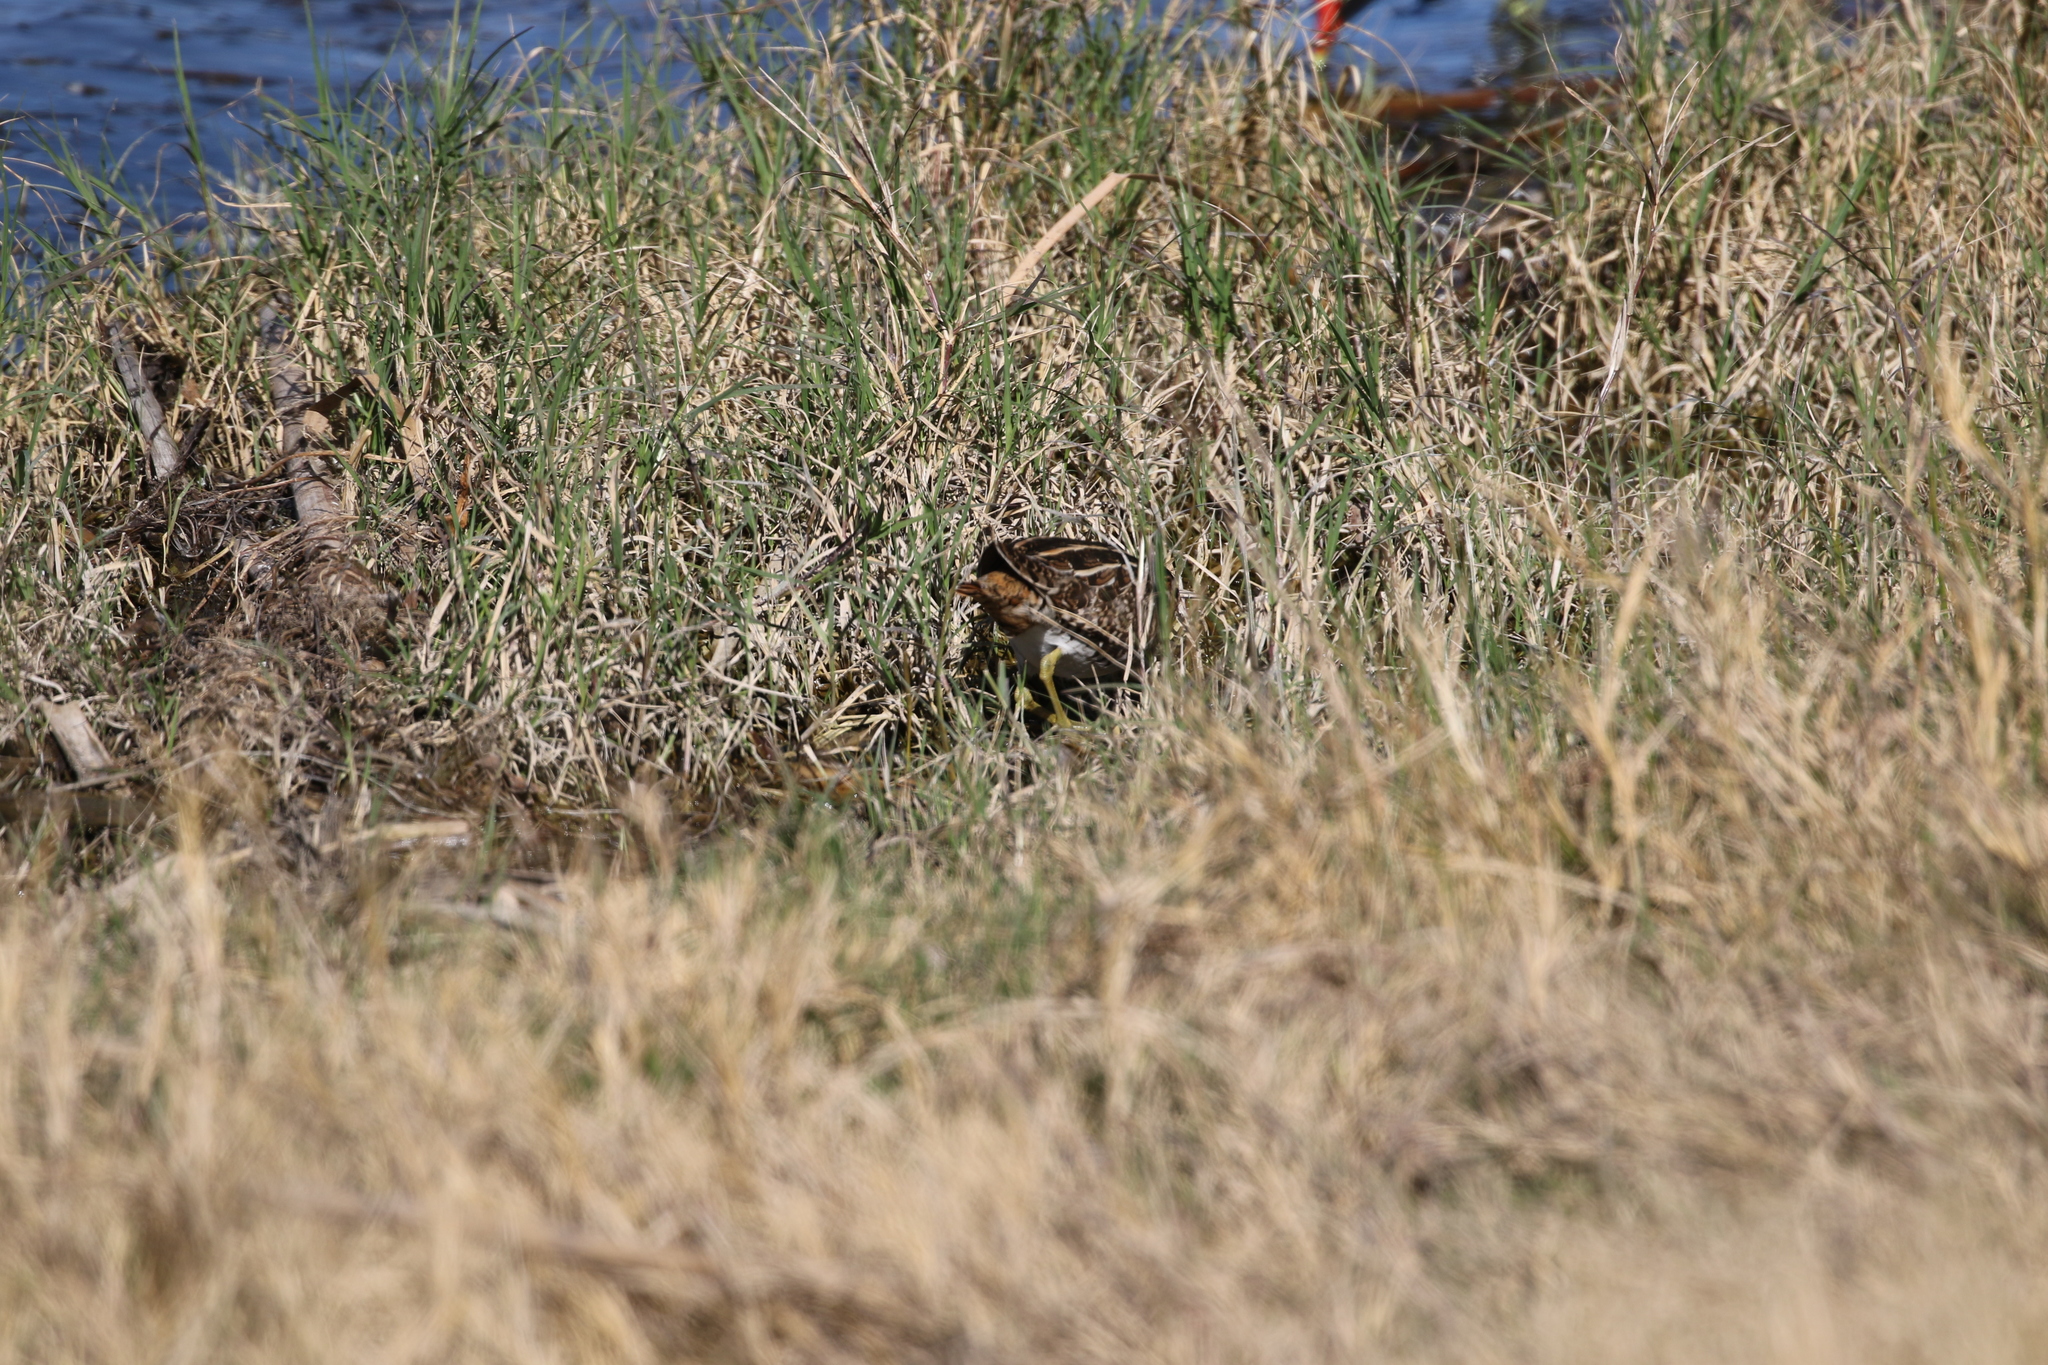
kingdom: Animalia
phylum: Chordata
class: Aves
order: Charadriiformes
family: Scolopacidae
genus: Gallinago
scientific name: Gallinago delicata
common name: Wilson's snipe
